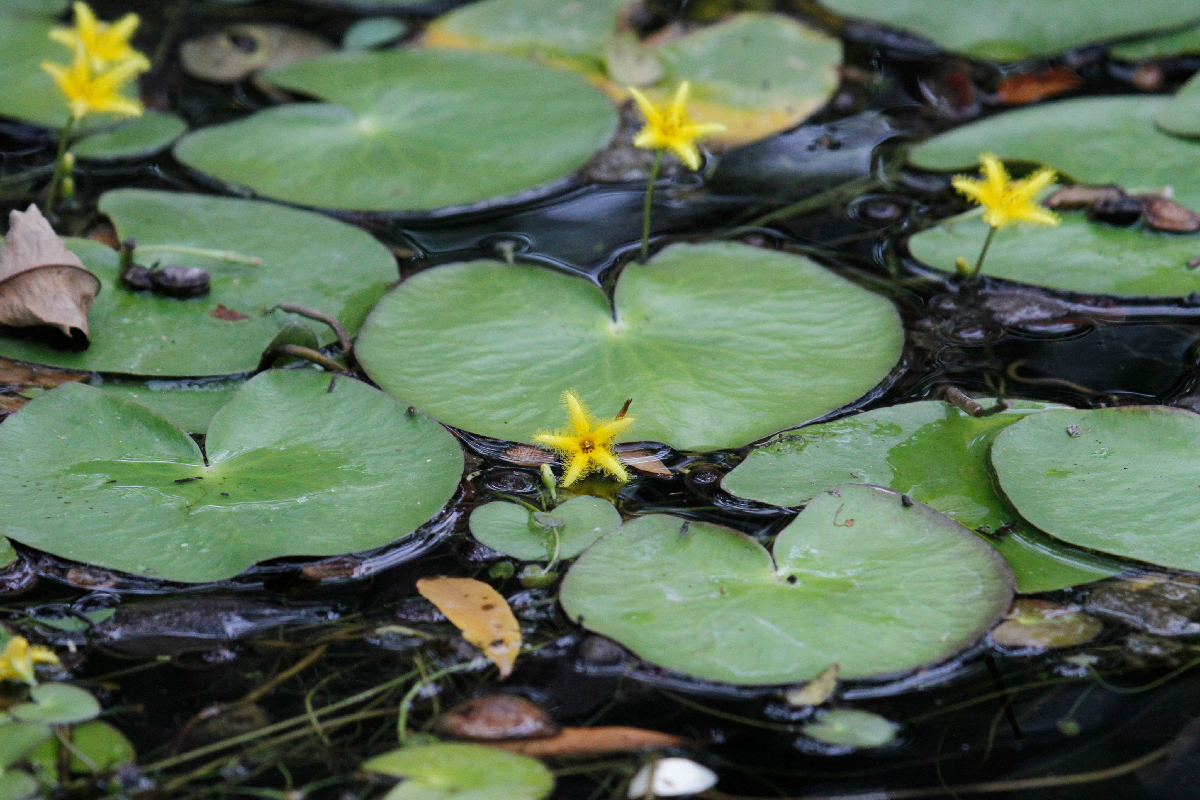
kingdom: Plantae
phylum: Tracheophyta
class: Magnoliopsida
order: Asterales
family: Menyanthaceae
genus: Nymphoides
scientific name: Nymphoides grayanum
